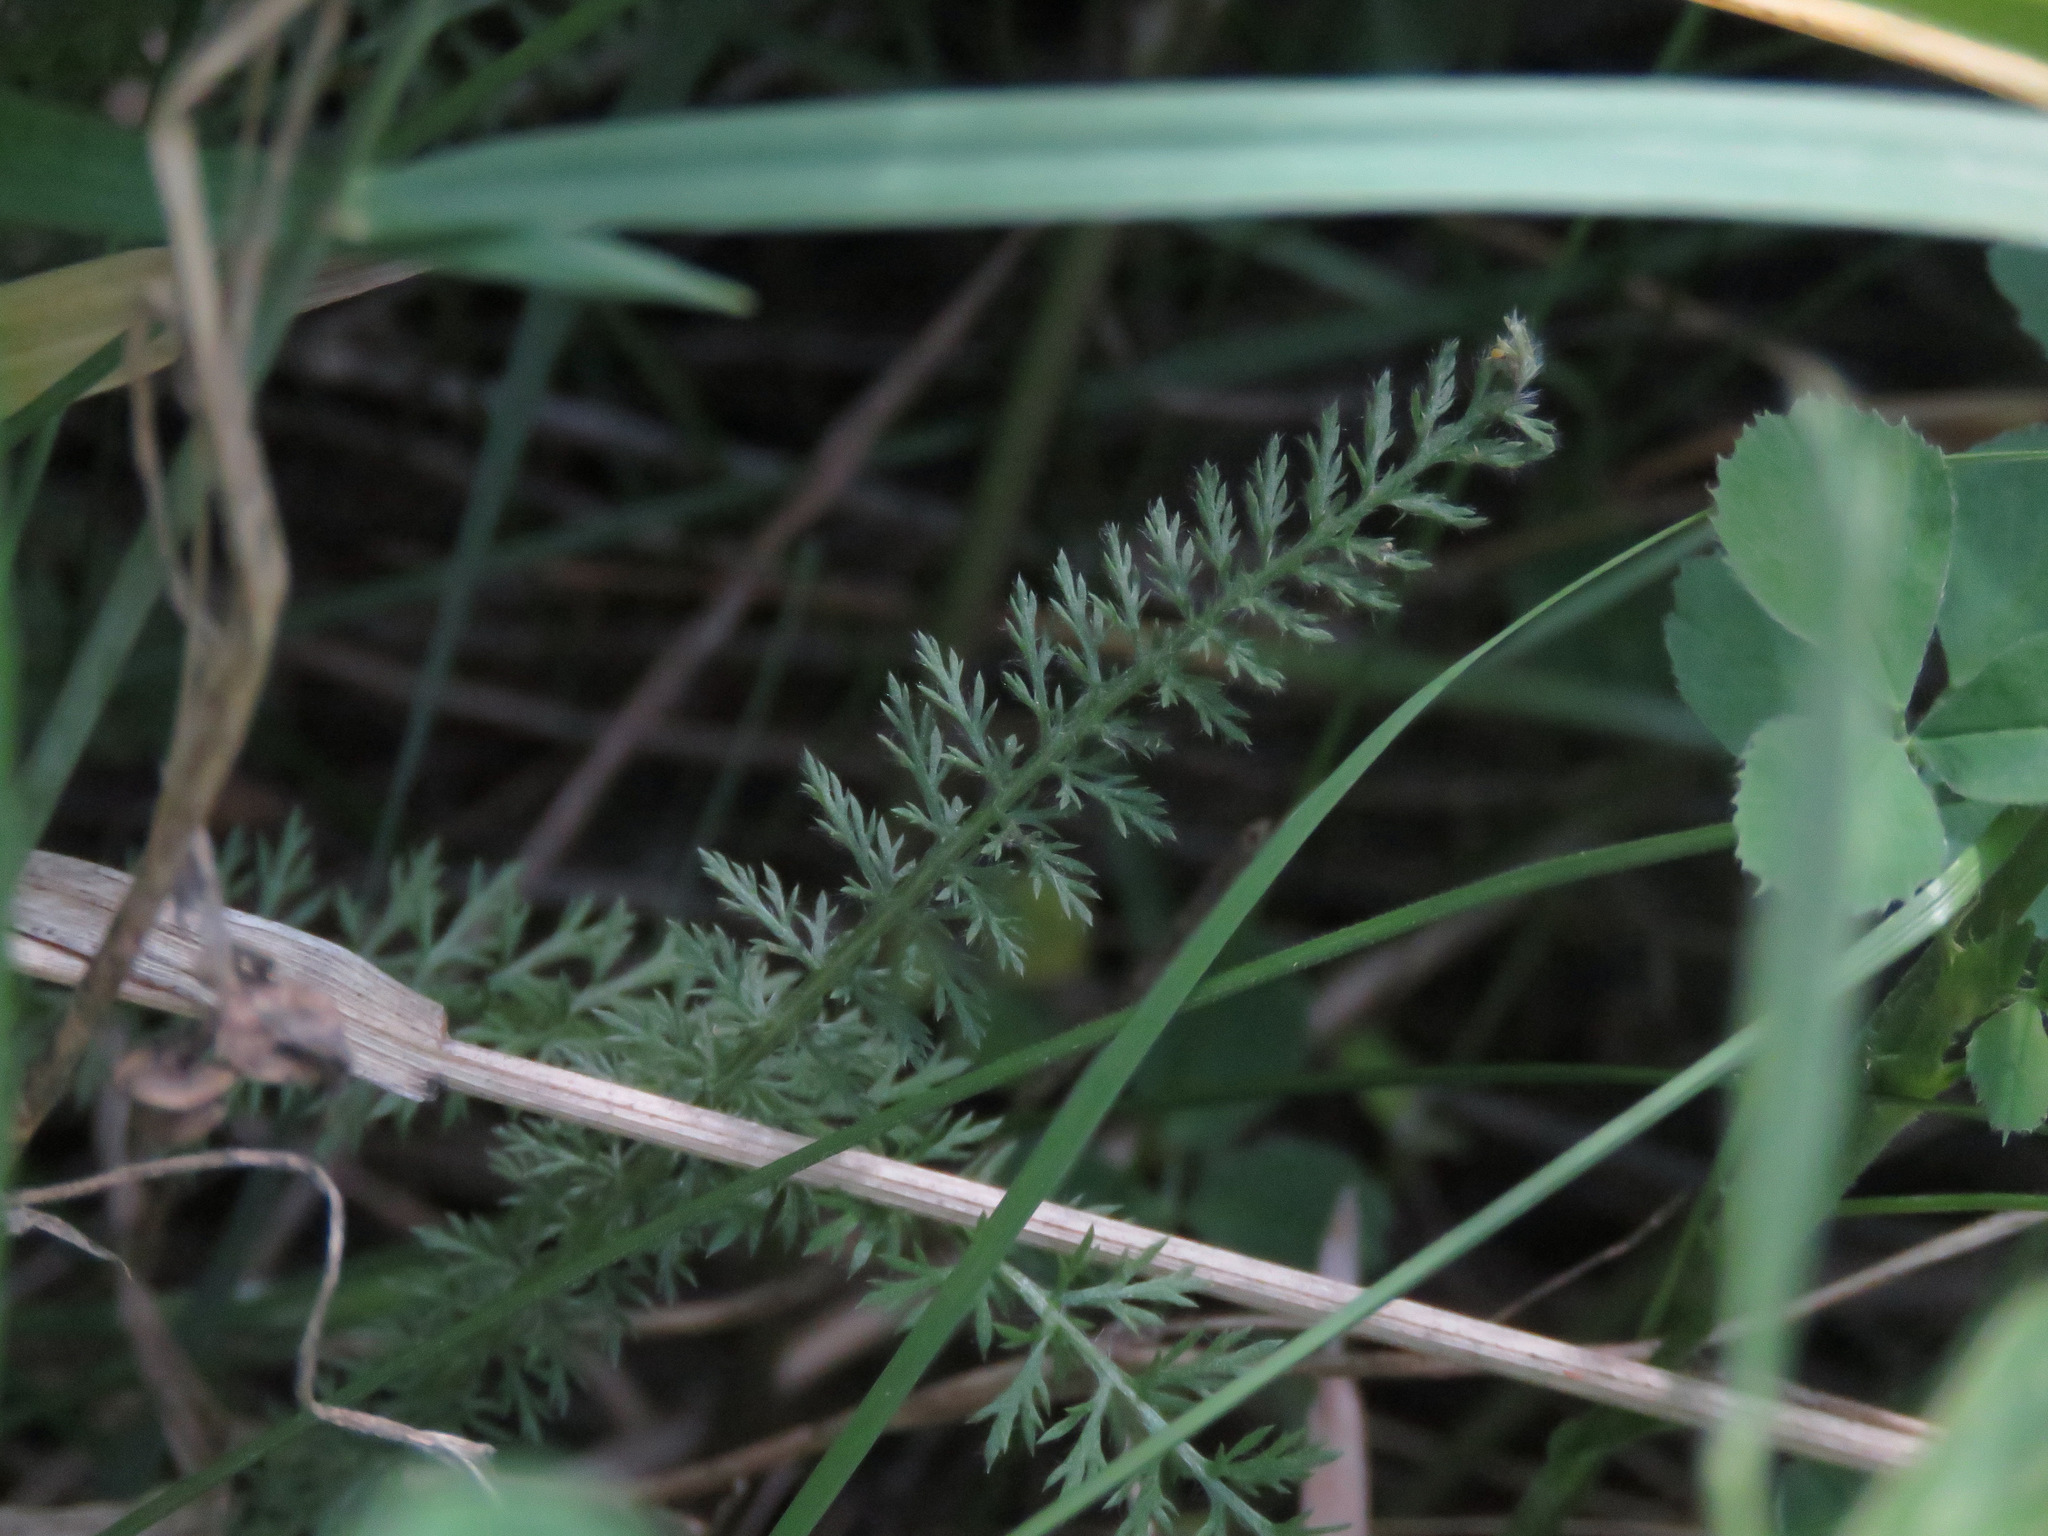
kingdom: Plantae
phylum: Tracheophyta
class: Magnoliopsida
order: Asterales
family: Asteraceae
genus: Achillea
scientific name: Achillea millefolium
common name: Yarrow
